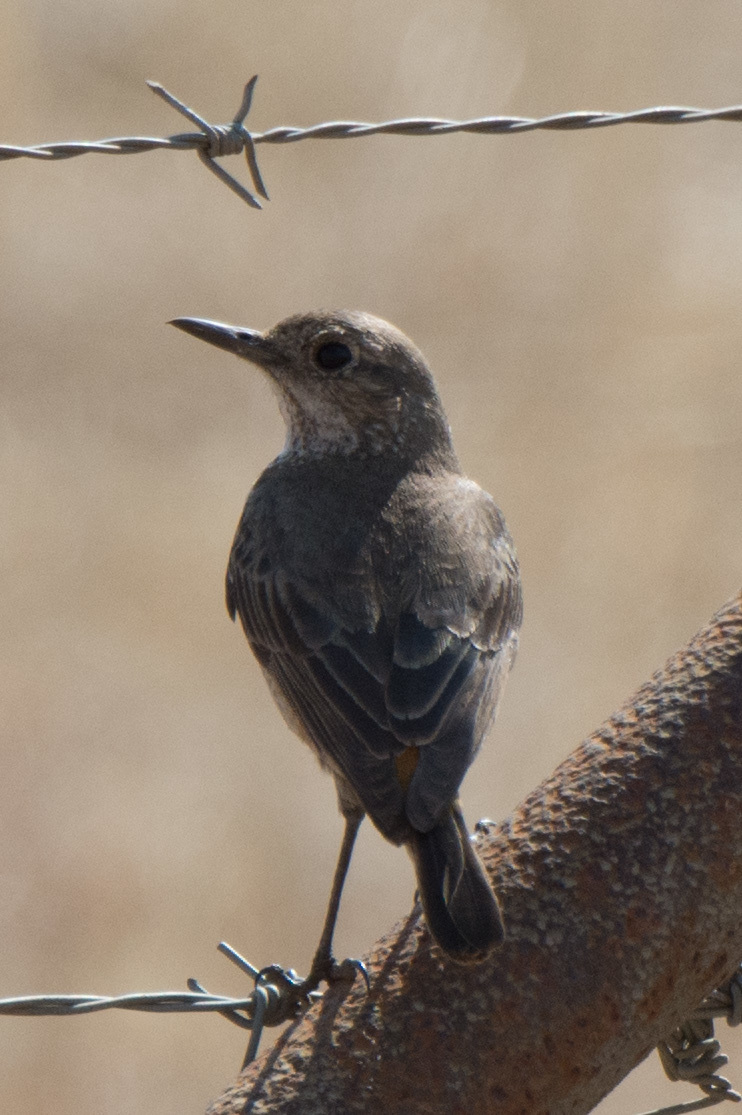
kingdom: Animalia
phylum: Chordata
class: Aves
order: Passeriformes
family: Muscicapidae
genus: Monticola
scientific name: Monticola explorator
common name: Sentinel rock thrush
